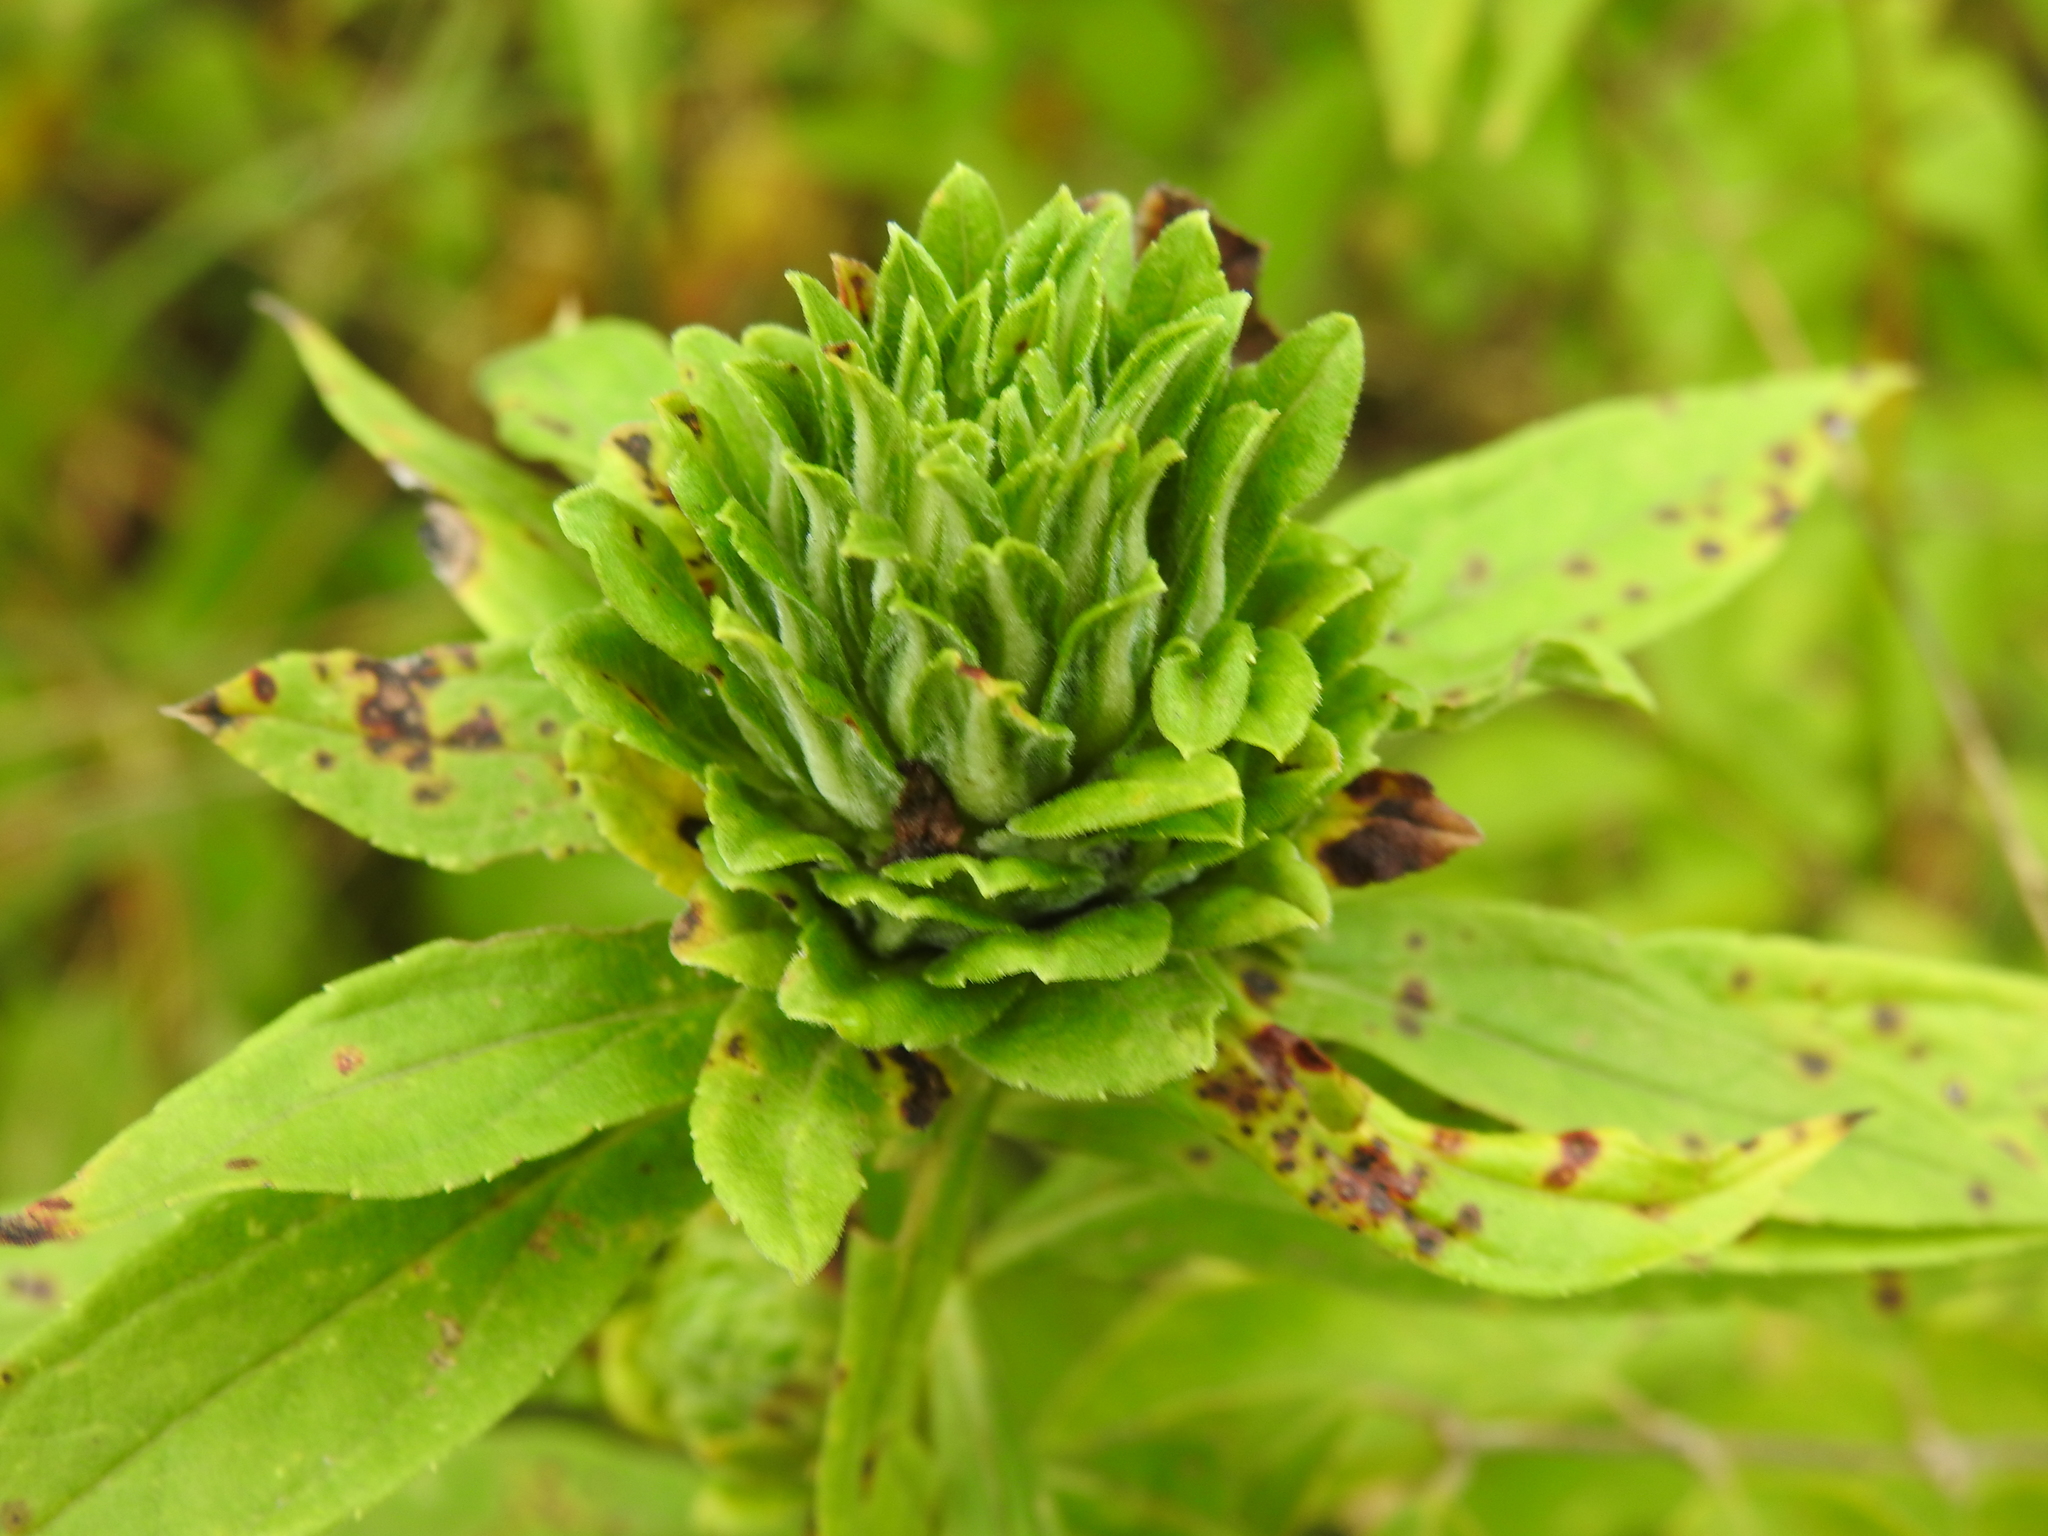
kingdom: Animalia
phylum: Arthropoda
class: Insecta
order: Diptera
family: Tephritidae
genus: Procecidochares
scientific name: Procecidochares atra
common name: Goldenrod brussels sprout gall fly
